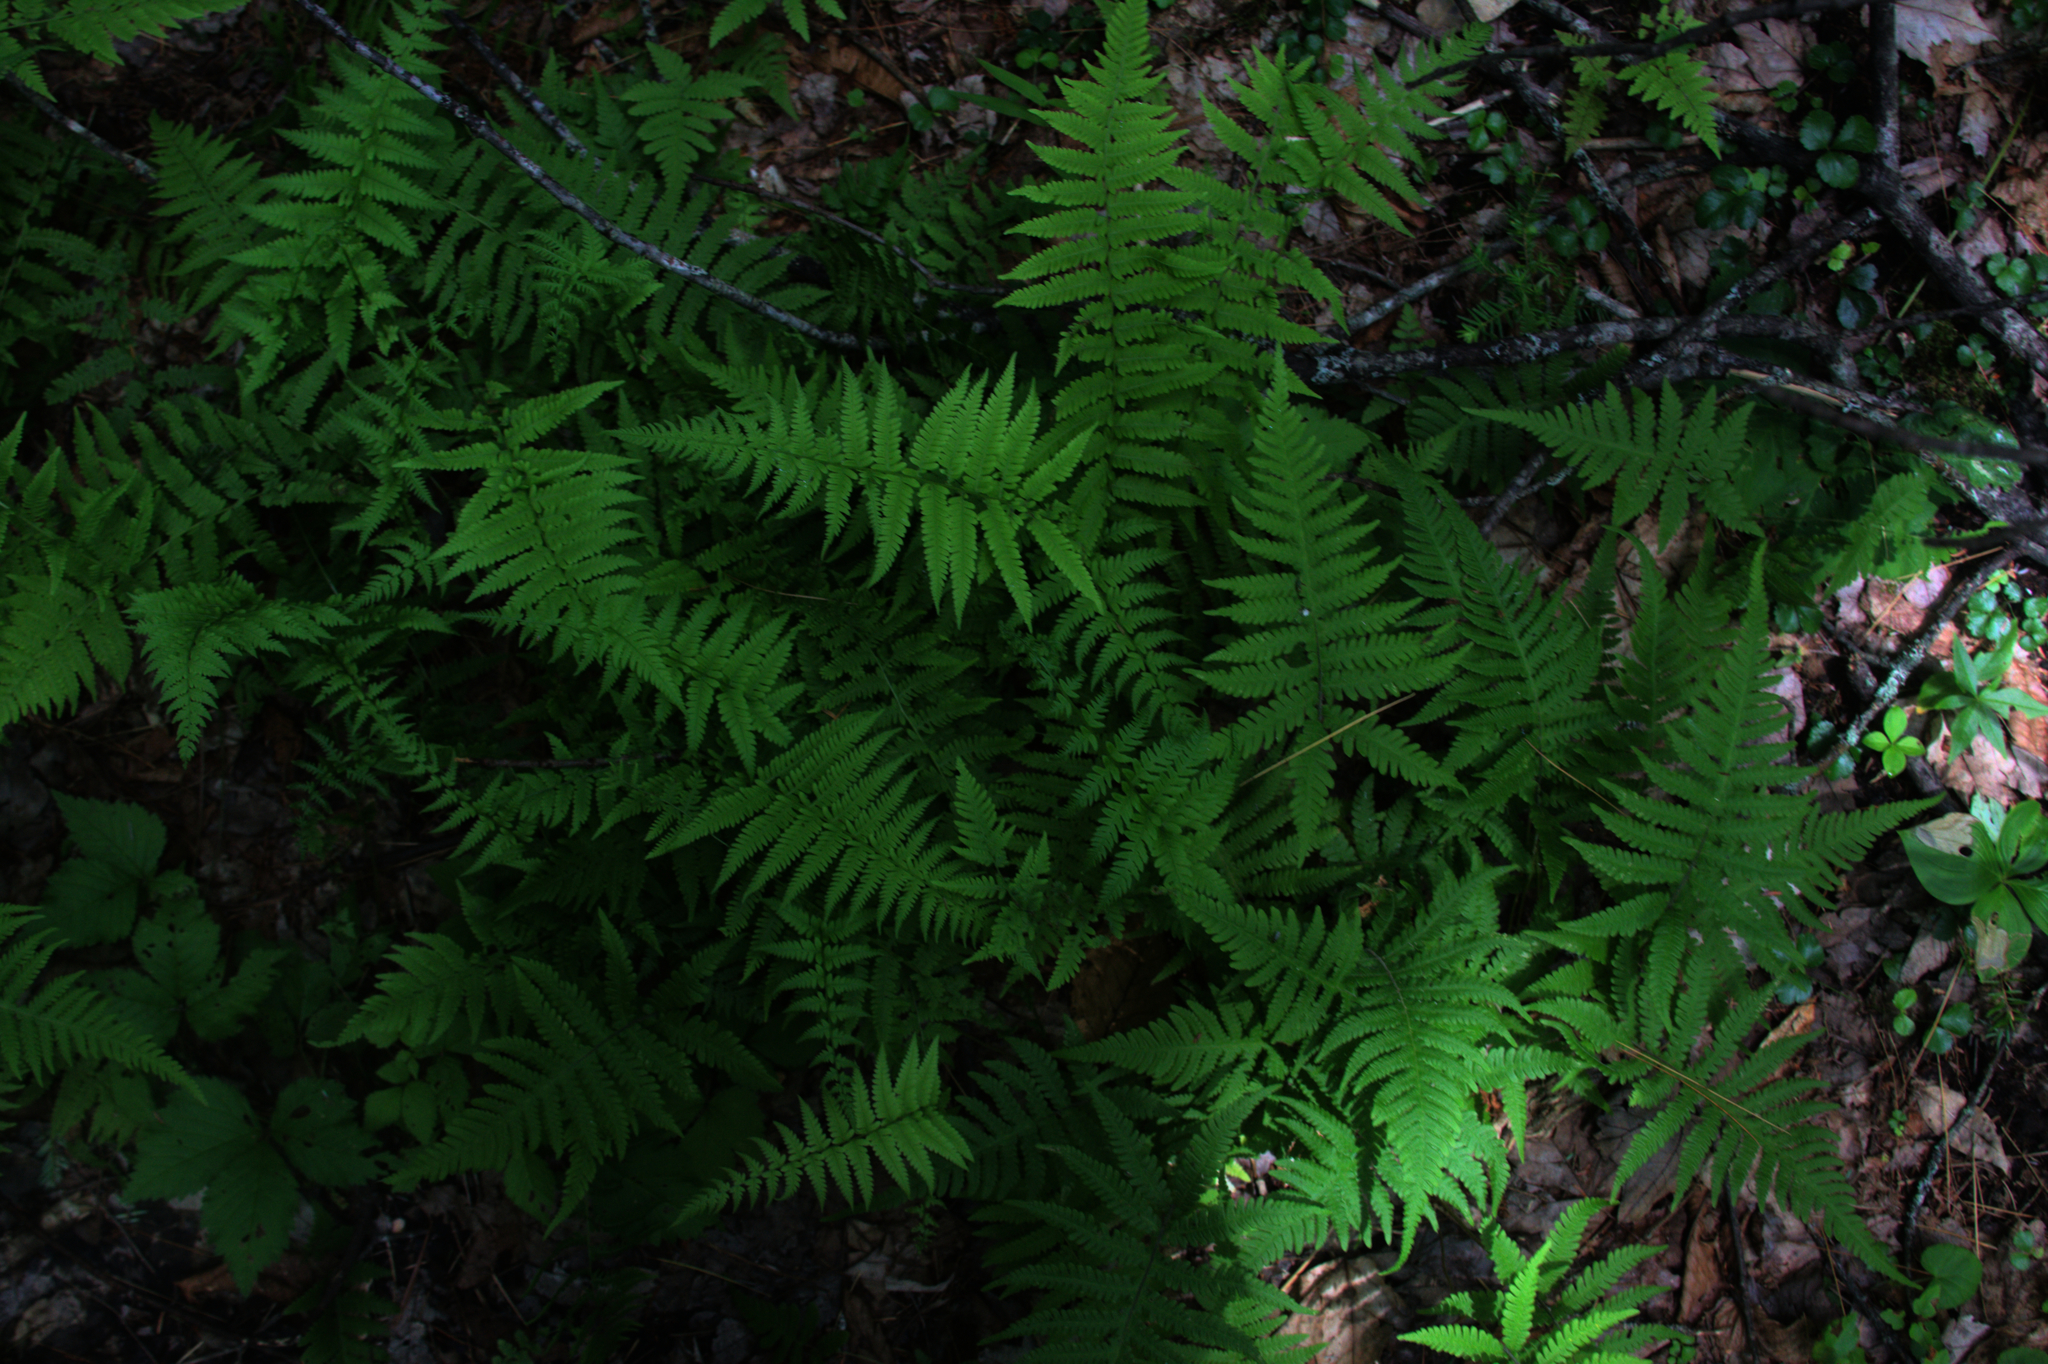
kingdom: Plantae
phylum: Tracheophyta
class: Polypodiopsida
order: Polypodiales
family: Thelypteridaceae
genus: Phegopteris
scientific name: Phegopteris connectilis
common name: Beech fern
